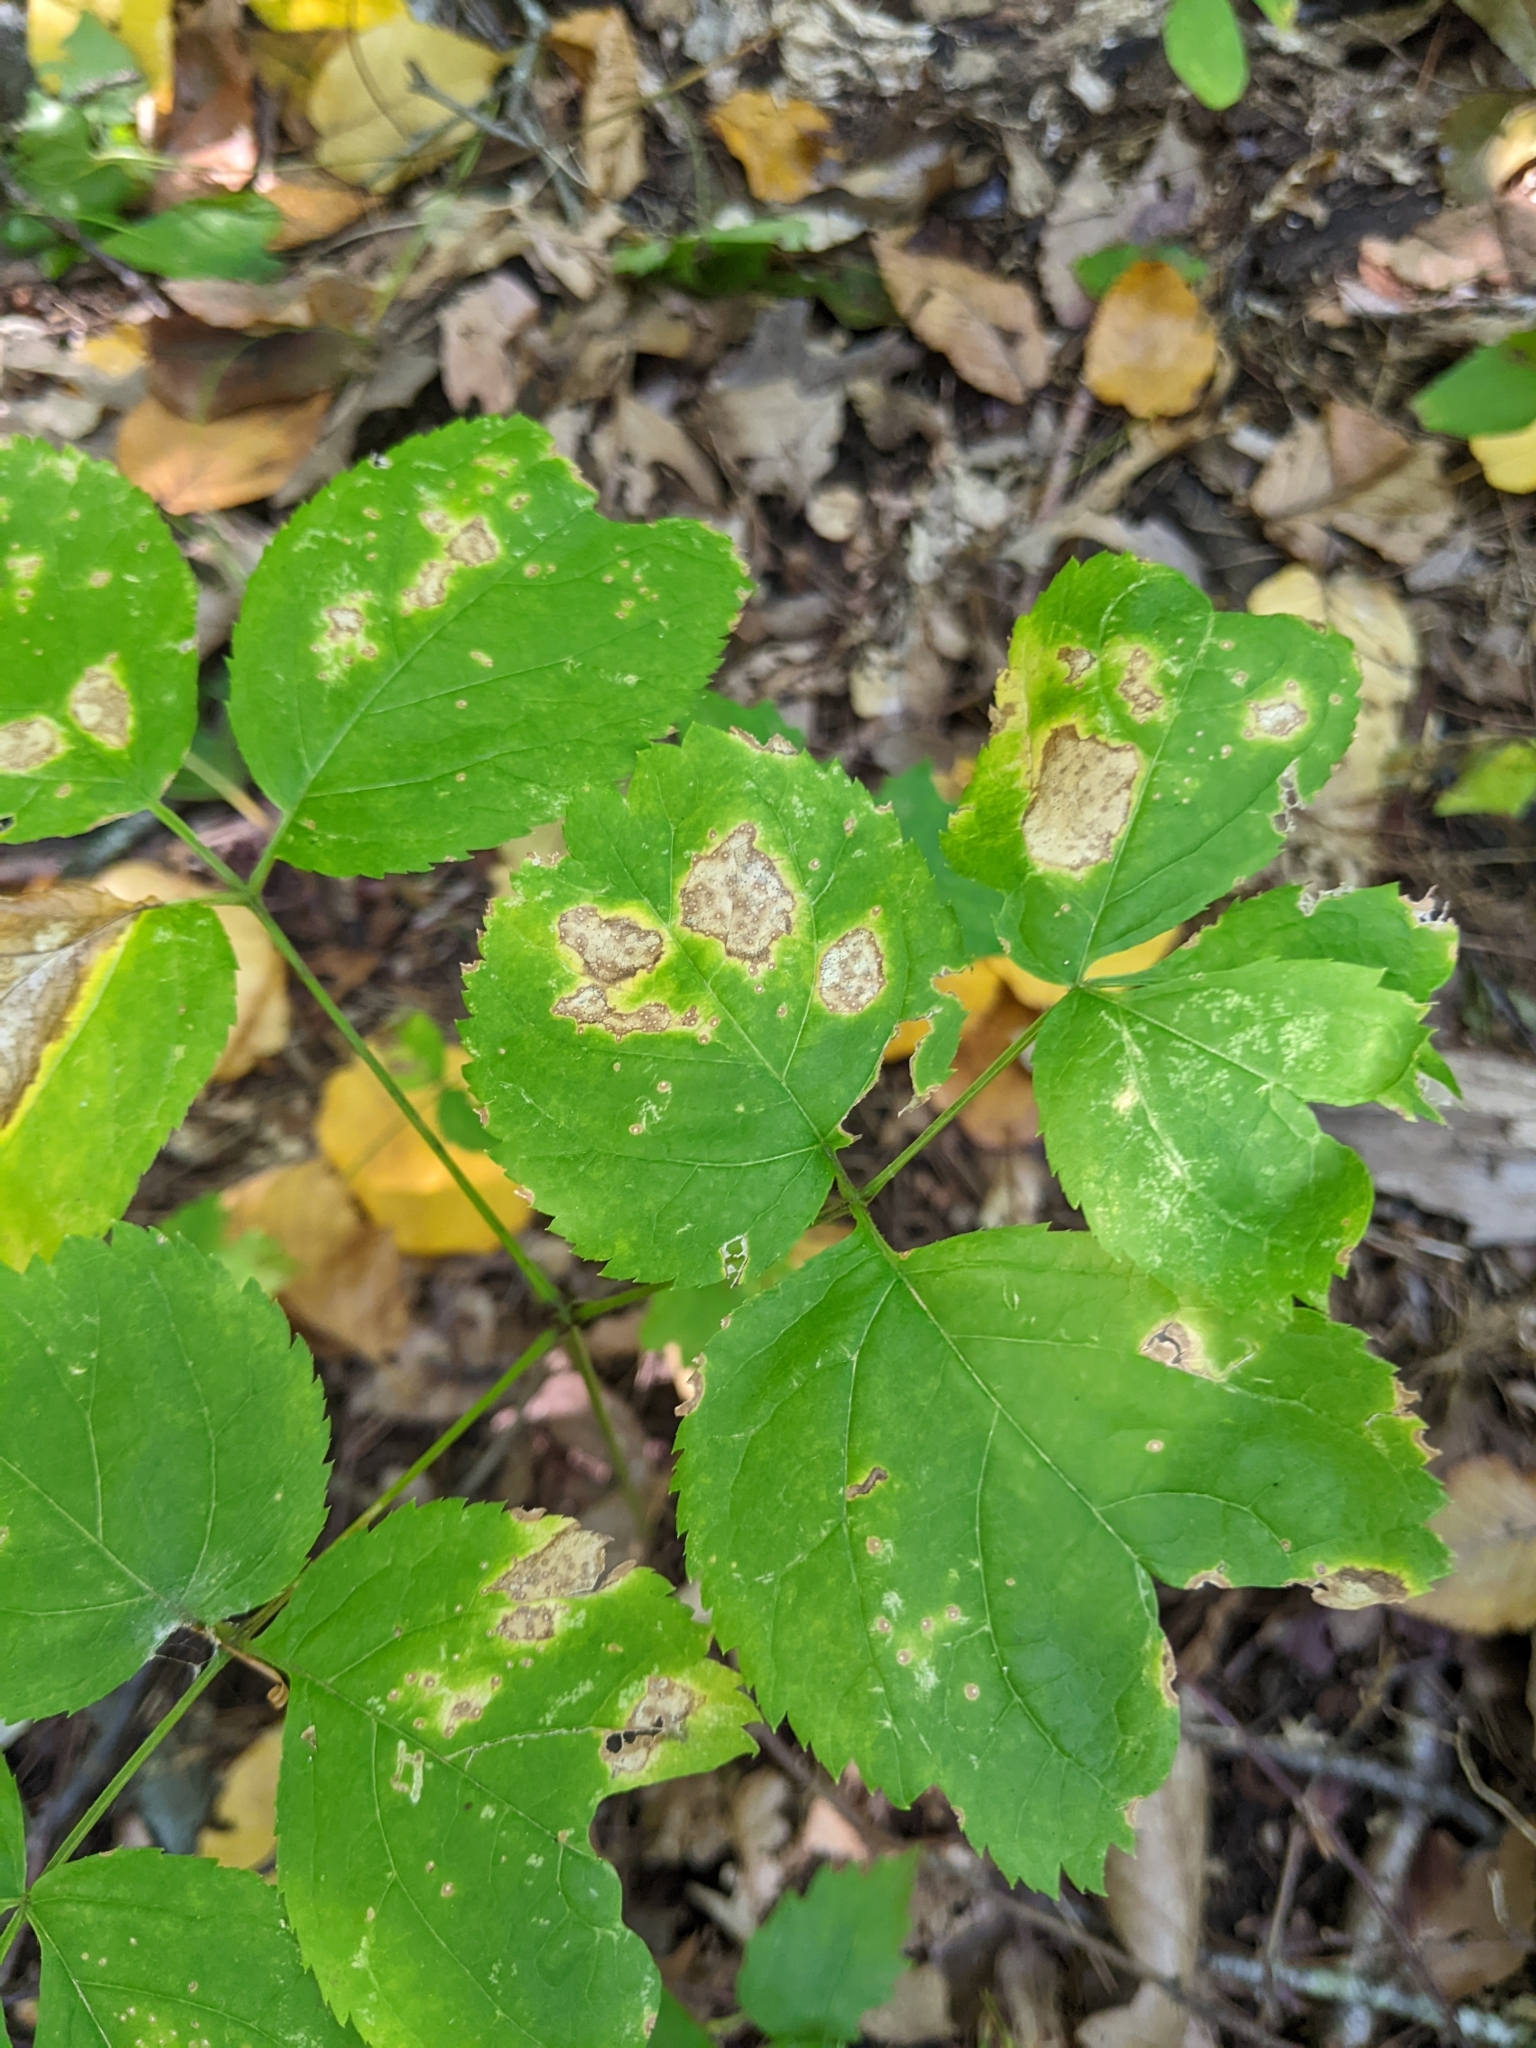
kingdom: Plantae
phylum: Tracheophyta
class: Magnoliopsida
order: Apiales
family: Araliaceae
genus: Aralia
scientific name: Aralia nudicaulis
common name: Wild sarsaparilla
